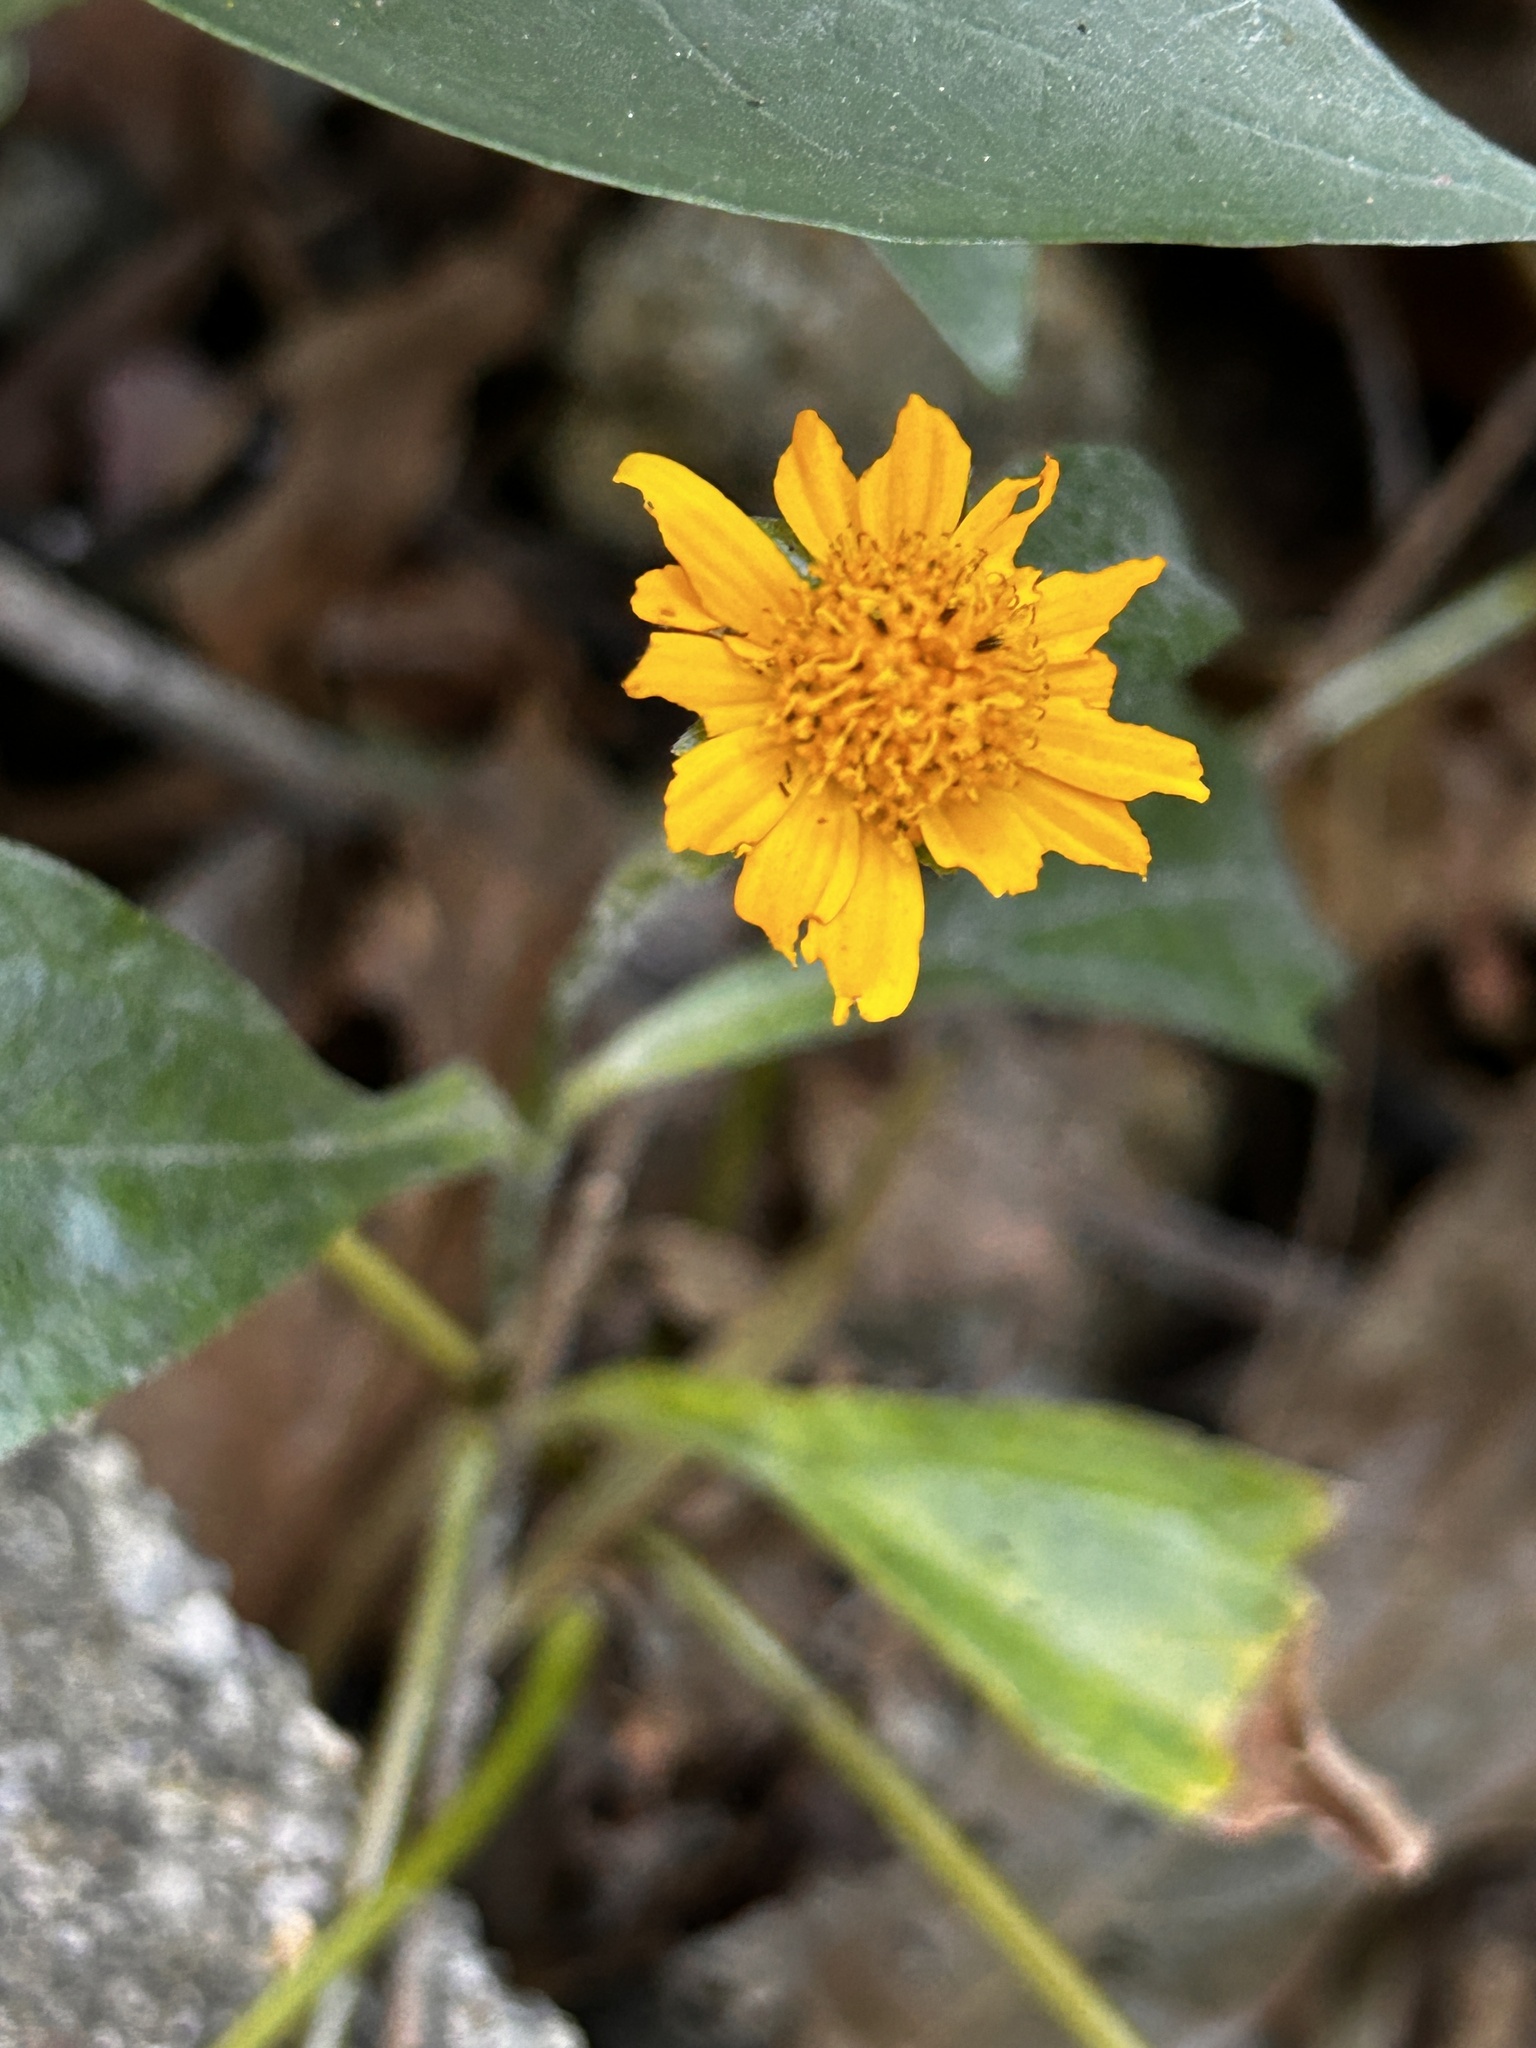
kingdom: Plantae
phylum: Tracheophyta
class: Magnoliopsida
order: Asterales
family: Asteraceae
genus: Sphagneticola
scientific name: Sphagneticola trilobata
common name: Bay biscayne creeping-oxeye
